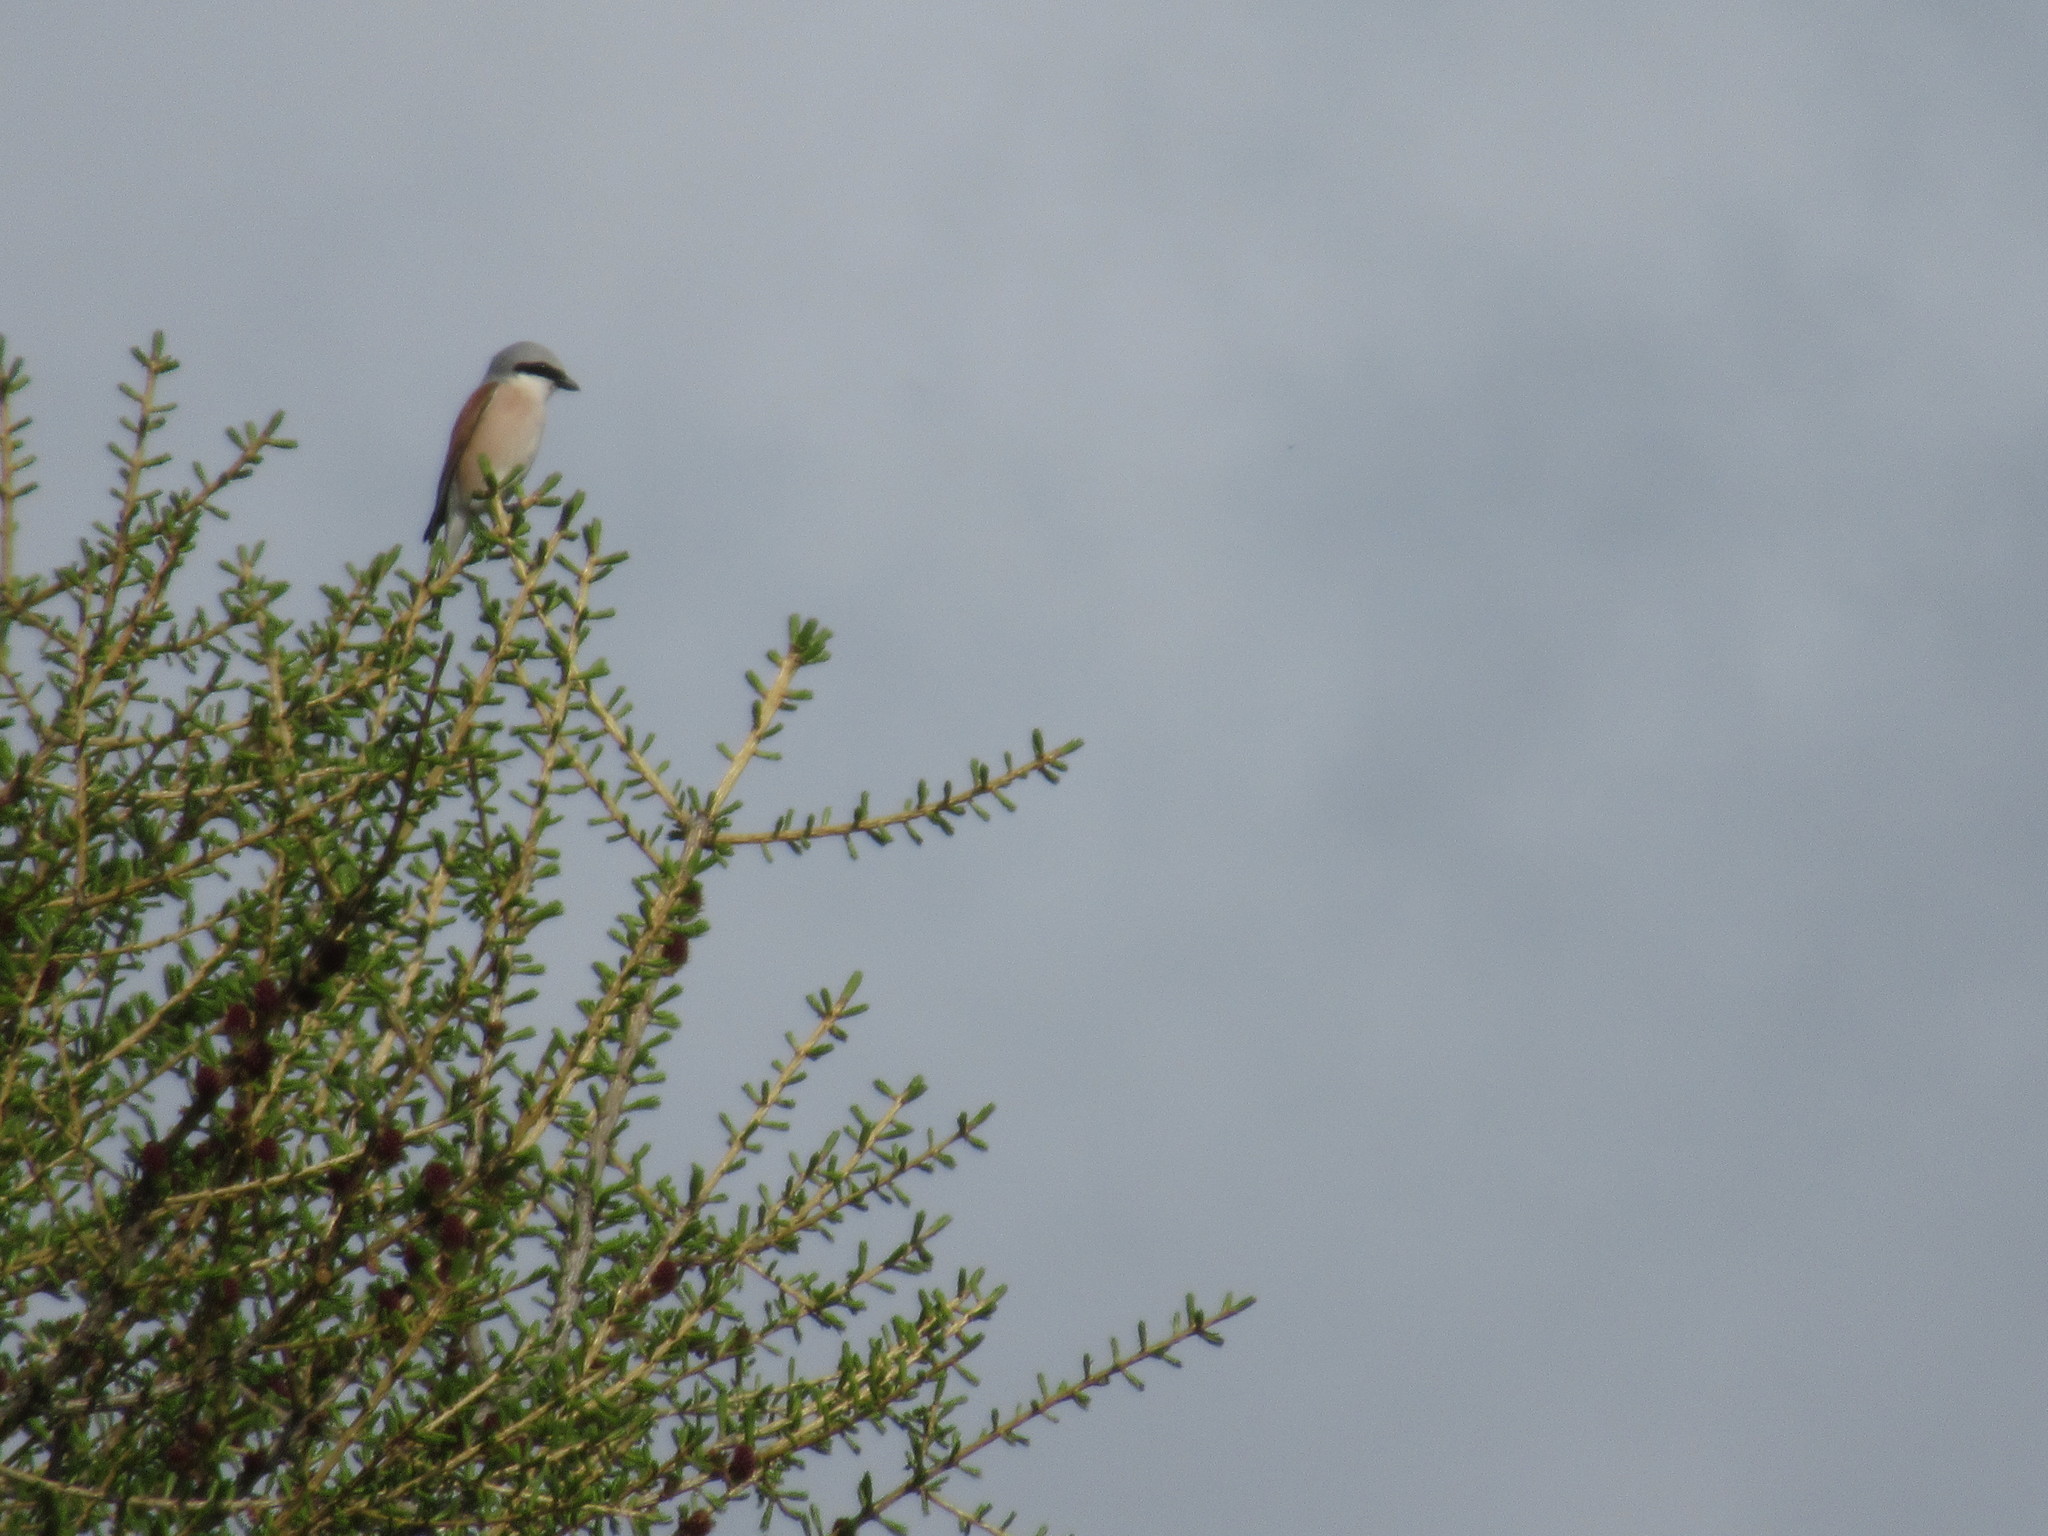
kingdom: Animalia
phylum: Chordata
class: Aves
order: Passeriformes
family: Laniidae
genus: Lanius
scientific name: Lanius collurio
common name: Red-backed shrike
